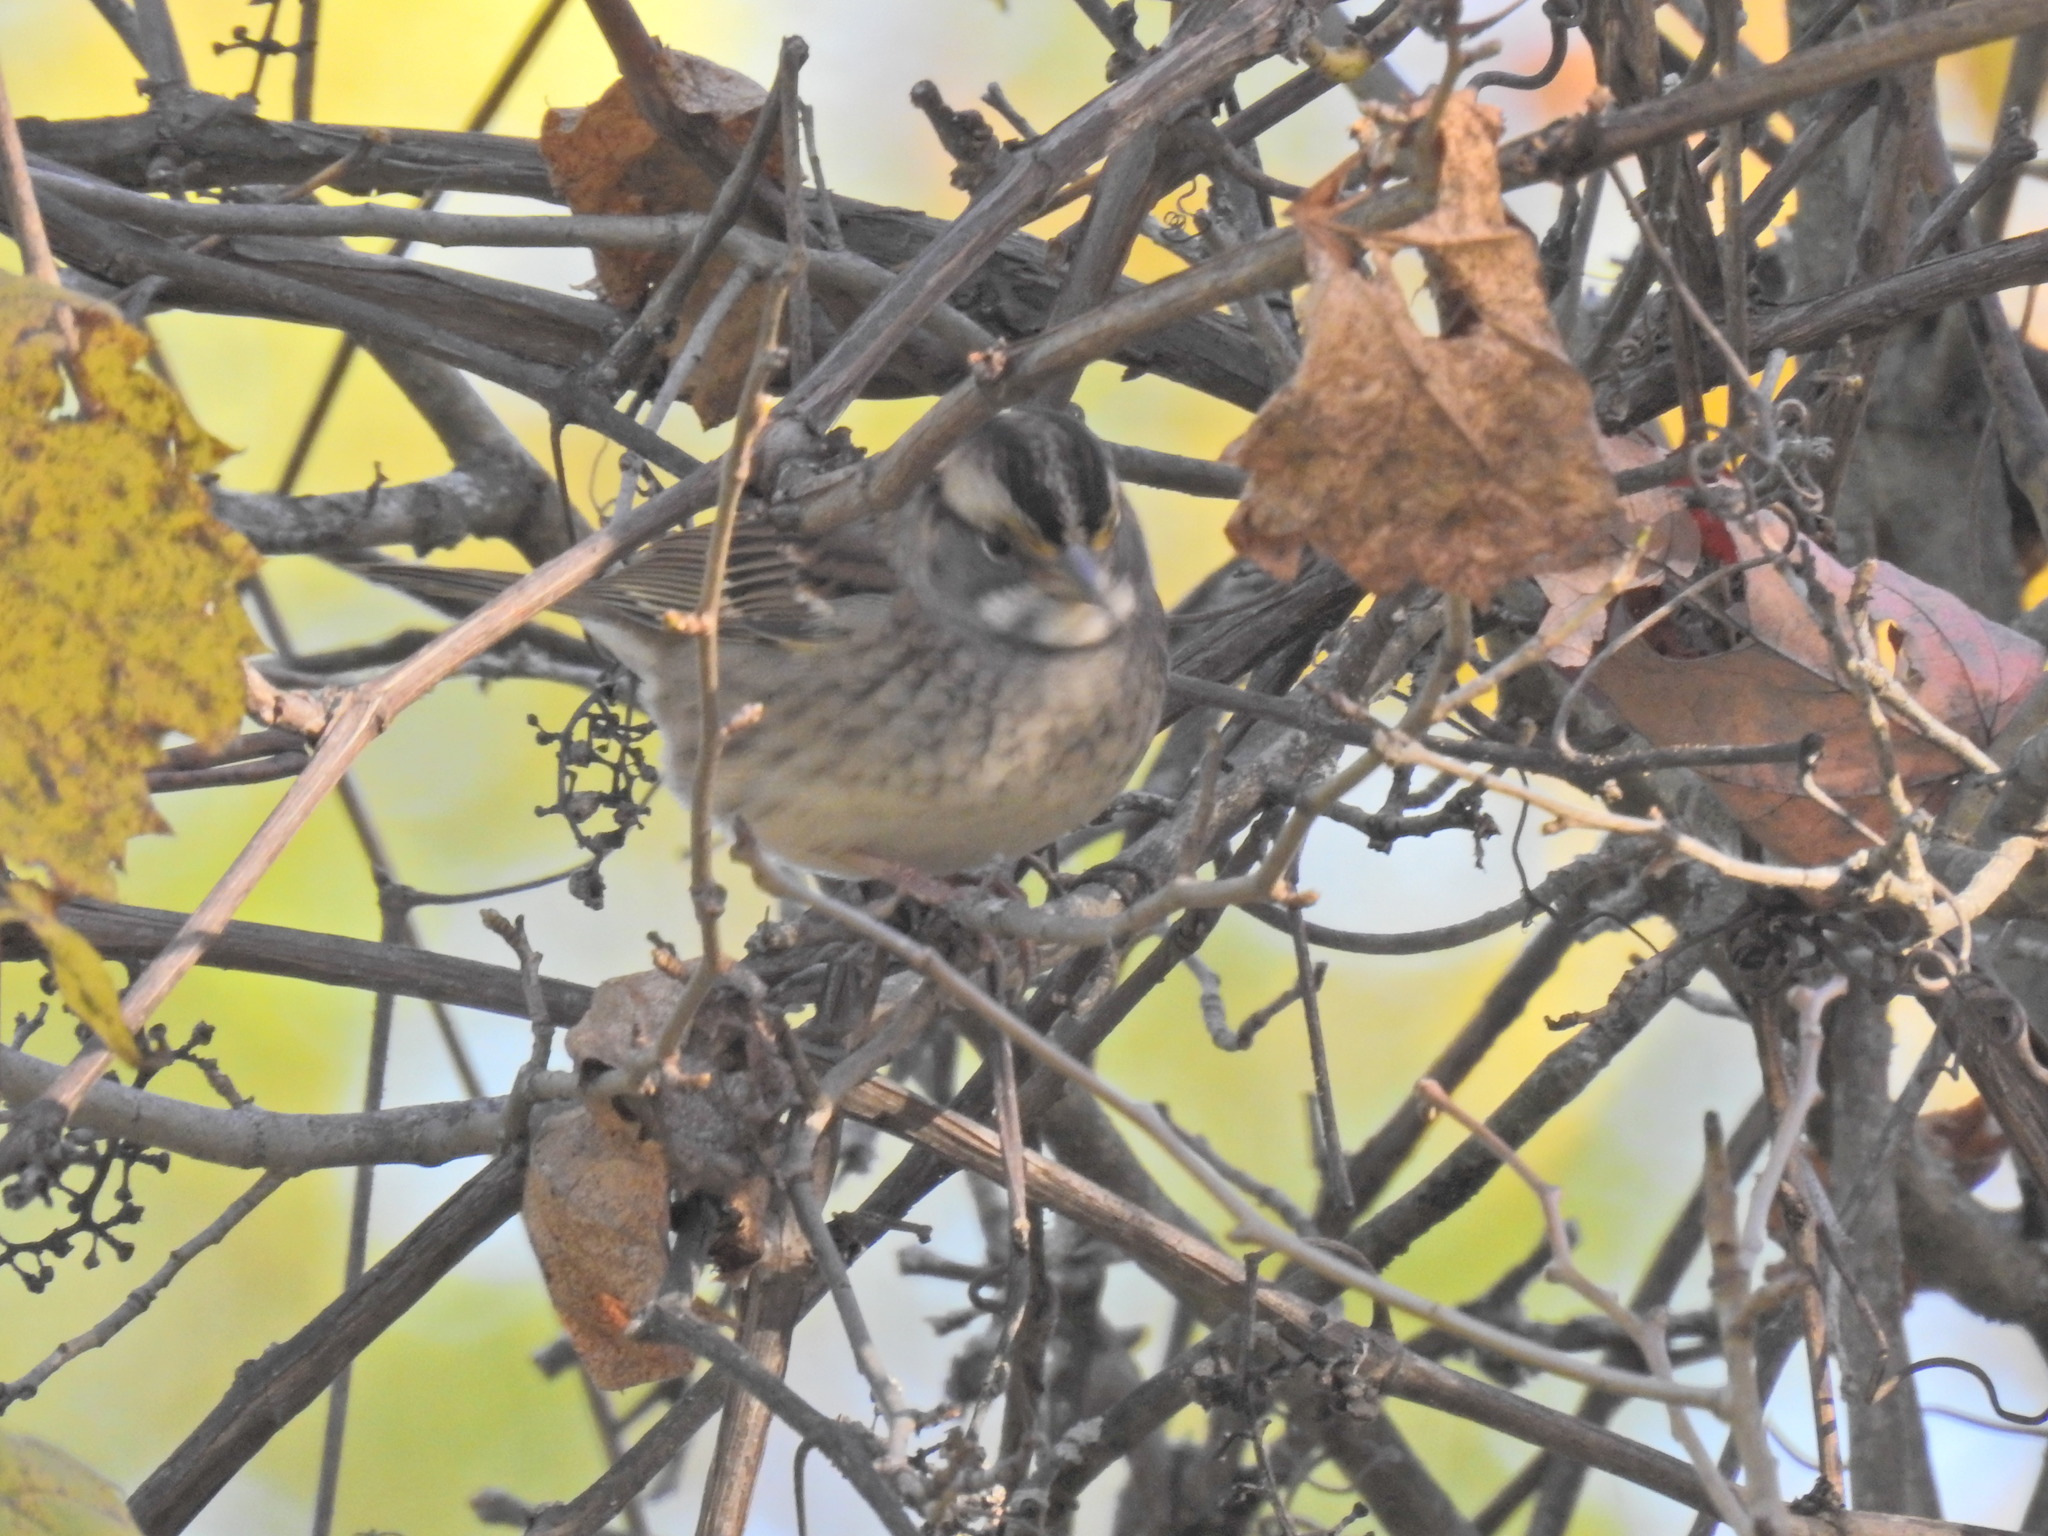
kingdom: Animalia
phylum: Chordata
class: Aves
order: Passeriformes
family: Passerellidae
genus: Zonotrichia
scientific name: Zonotrichia albicollis
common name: White-throated sparrow
